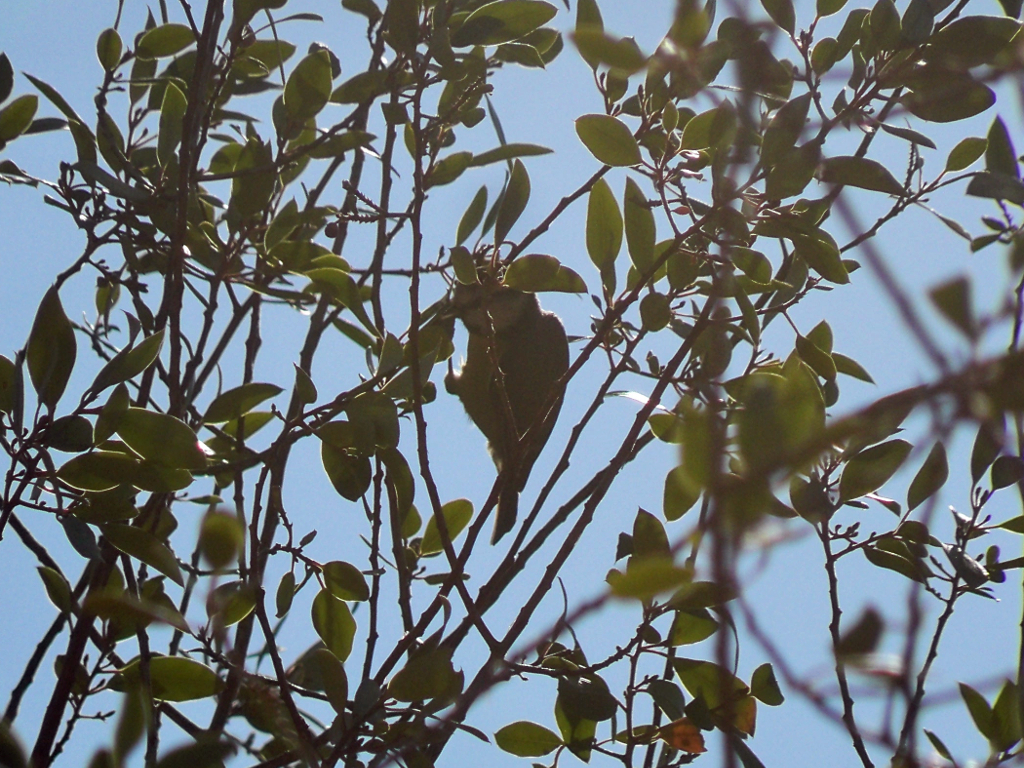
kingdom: Animalia
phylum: Chordata
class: Aves
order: Passeriformes
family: Paridae
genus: Cyanistes
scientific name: Cyanistes caeruleus
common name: Eurasian blue tit
